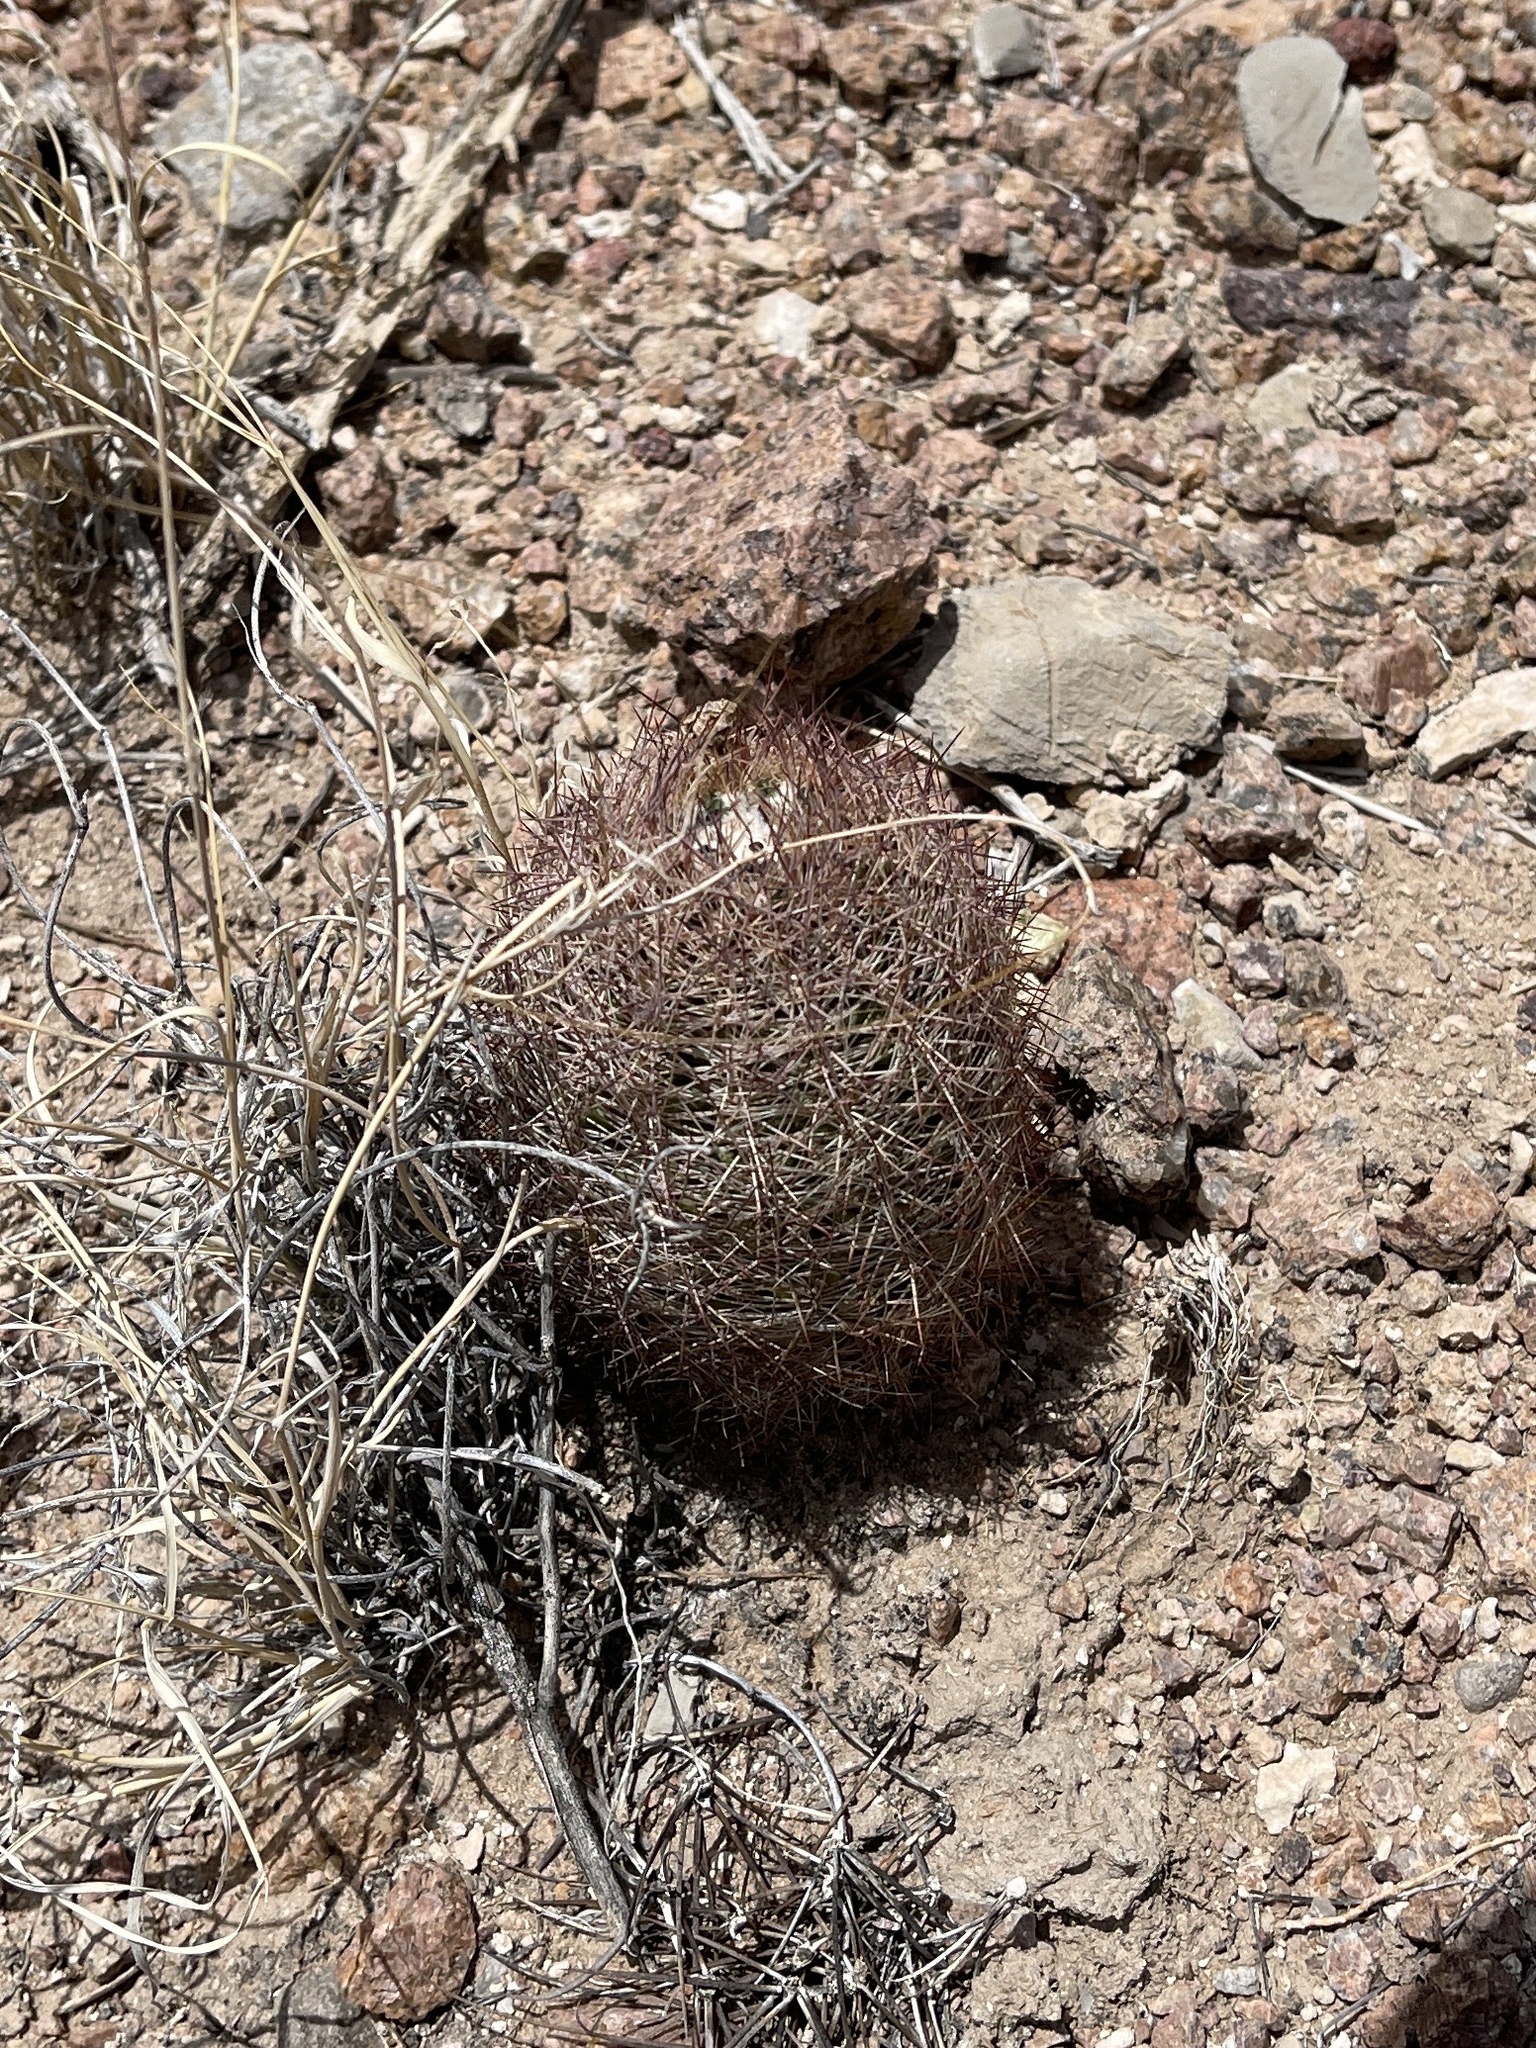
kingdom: Plantae
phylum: Tracheophyta
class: Magnoliopsida
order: Caryophyllales
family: Cactaceae
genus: Sclerocactus
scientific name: Sclerocactus intertextus
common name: White fish-hook cactus
